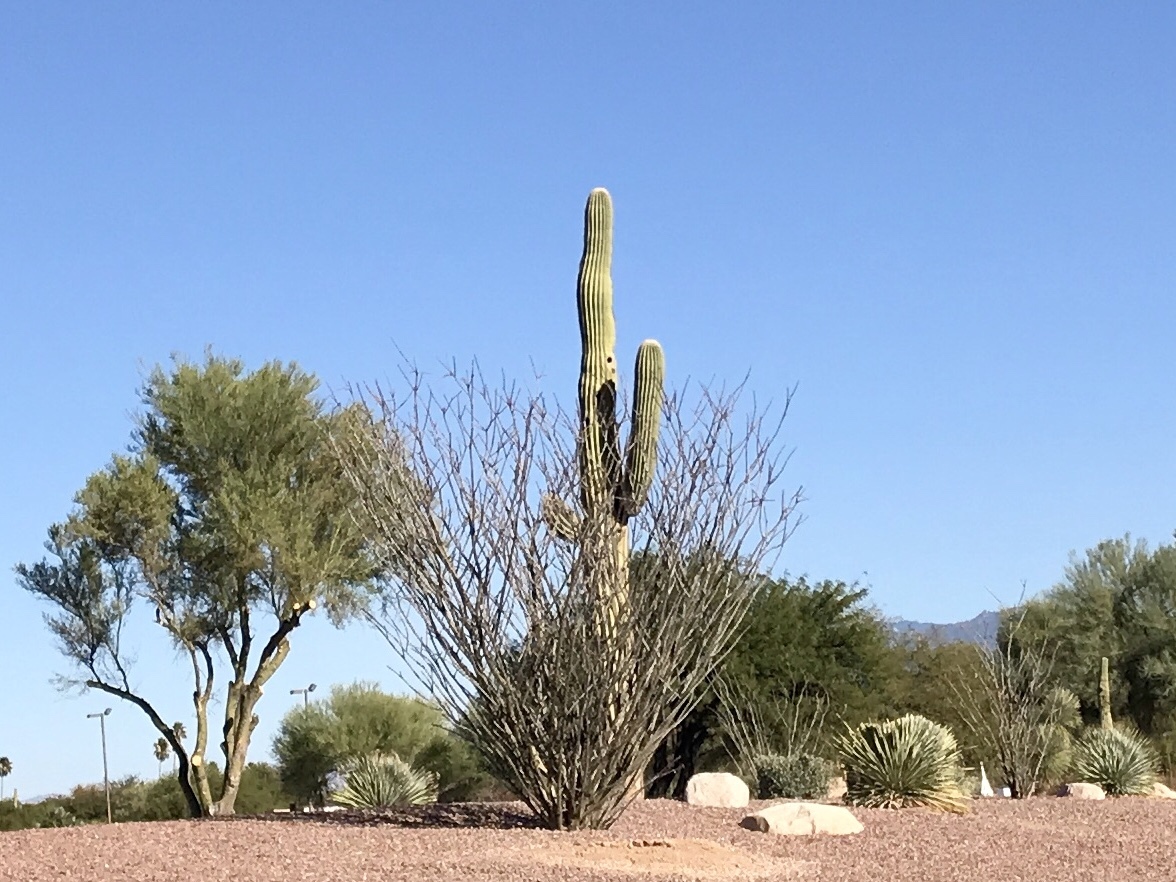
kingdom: Plantae
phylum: Tracheophyta
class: Magnoliopsida
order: Ericales
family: Fouquieriaceae
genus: Fouquieria
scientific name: Fouquieria splendens
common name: Vine-cactus
